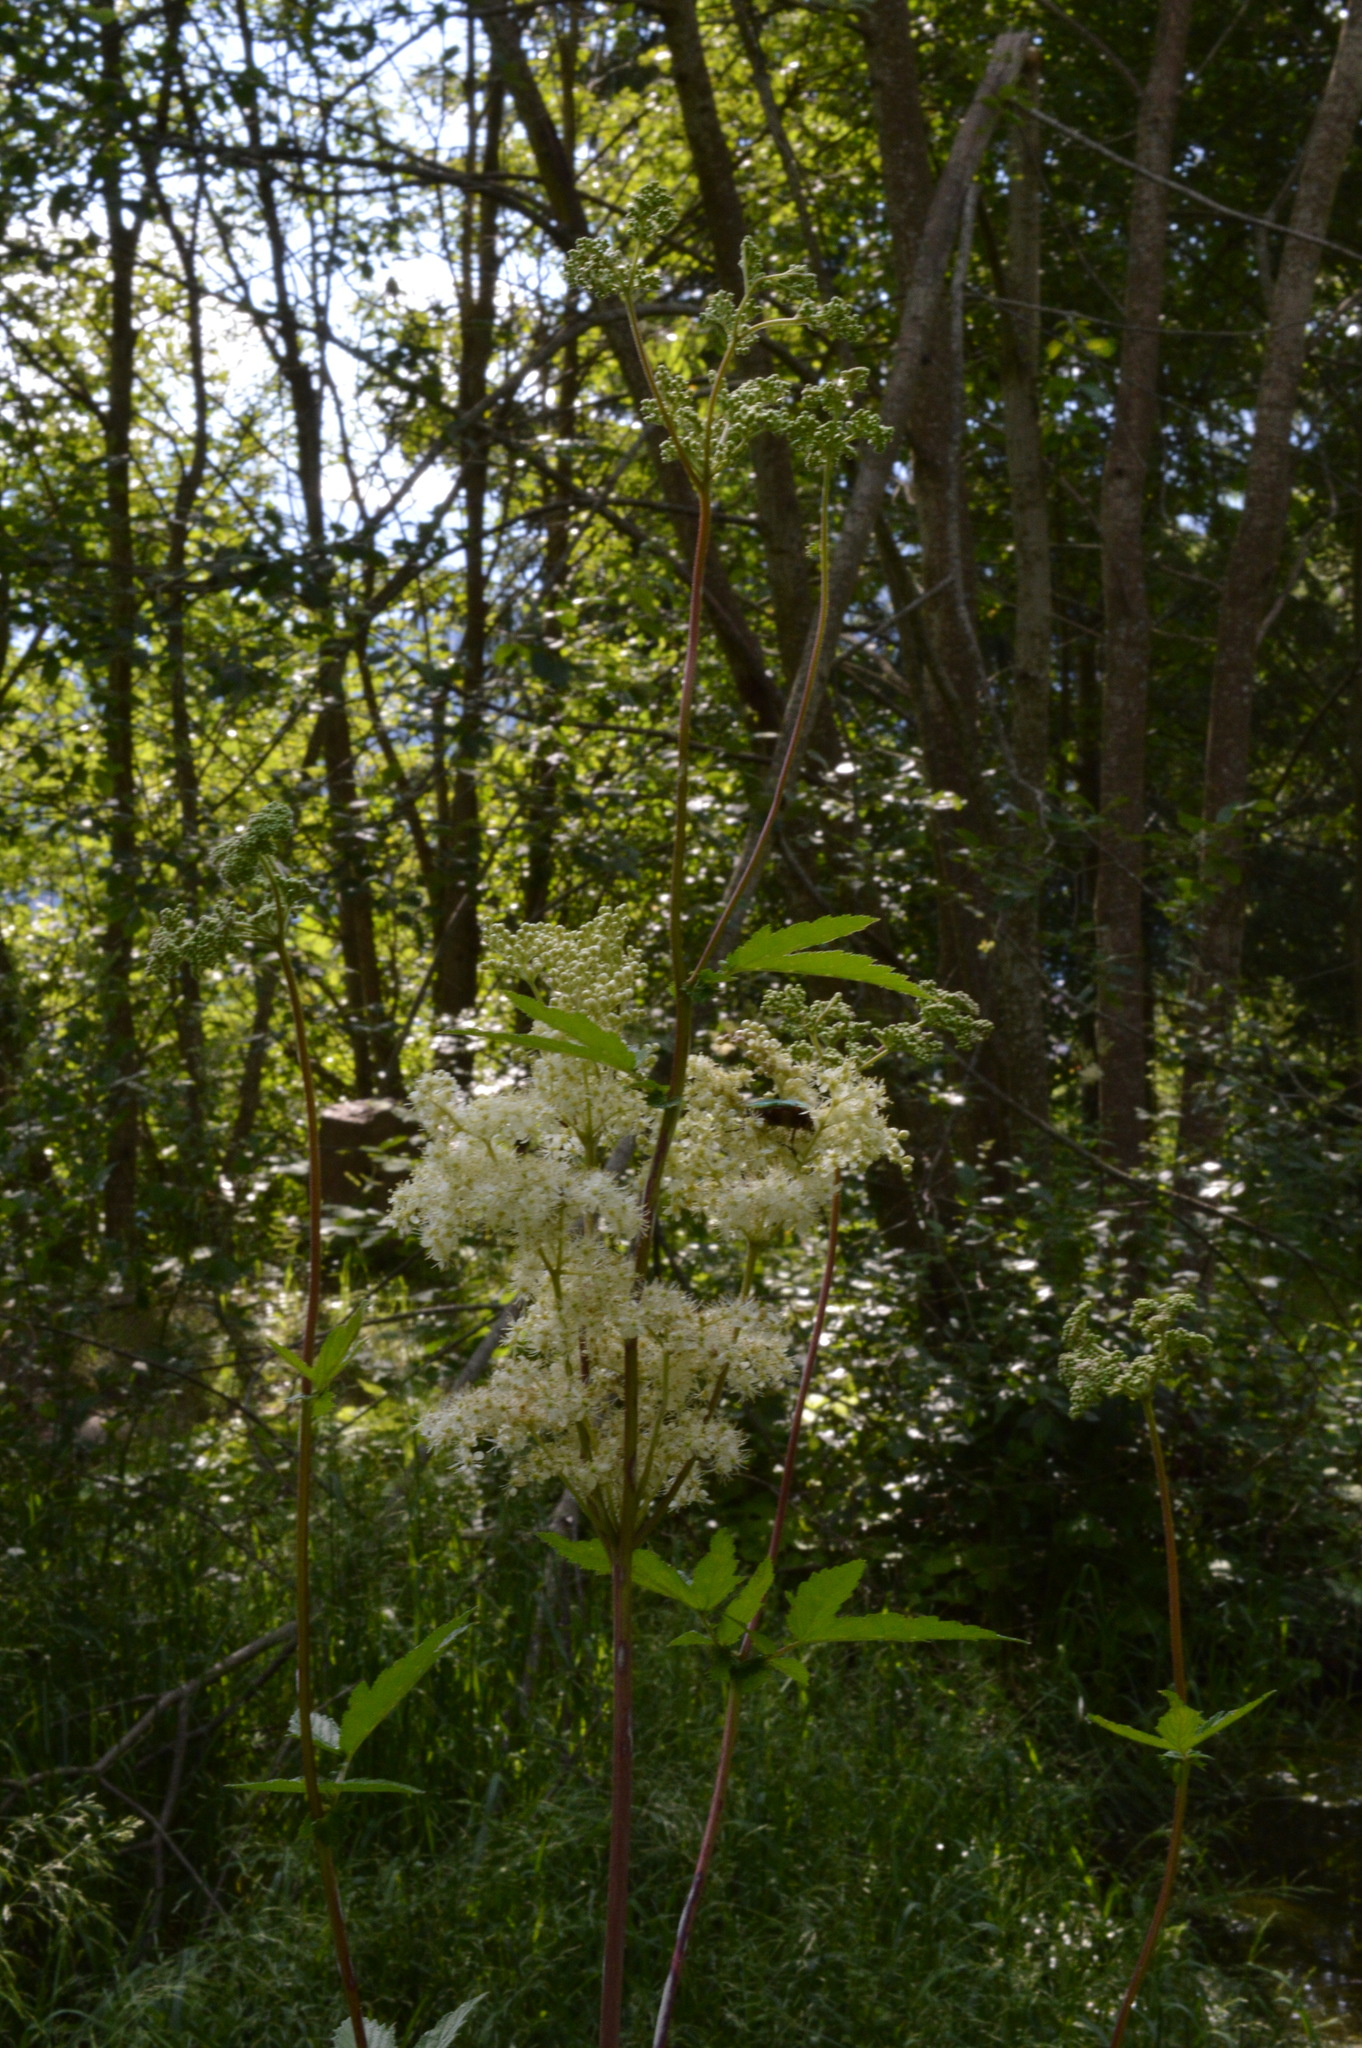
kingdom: Plantae
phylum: Tracheophyta
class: Magnoliopsida
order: Rosales
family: Rosaceae
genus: Filipendula
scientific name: Filipendula ulmaria
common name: Meadowsweet
